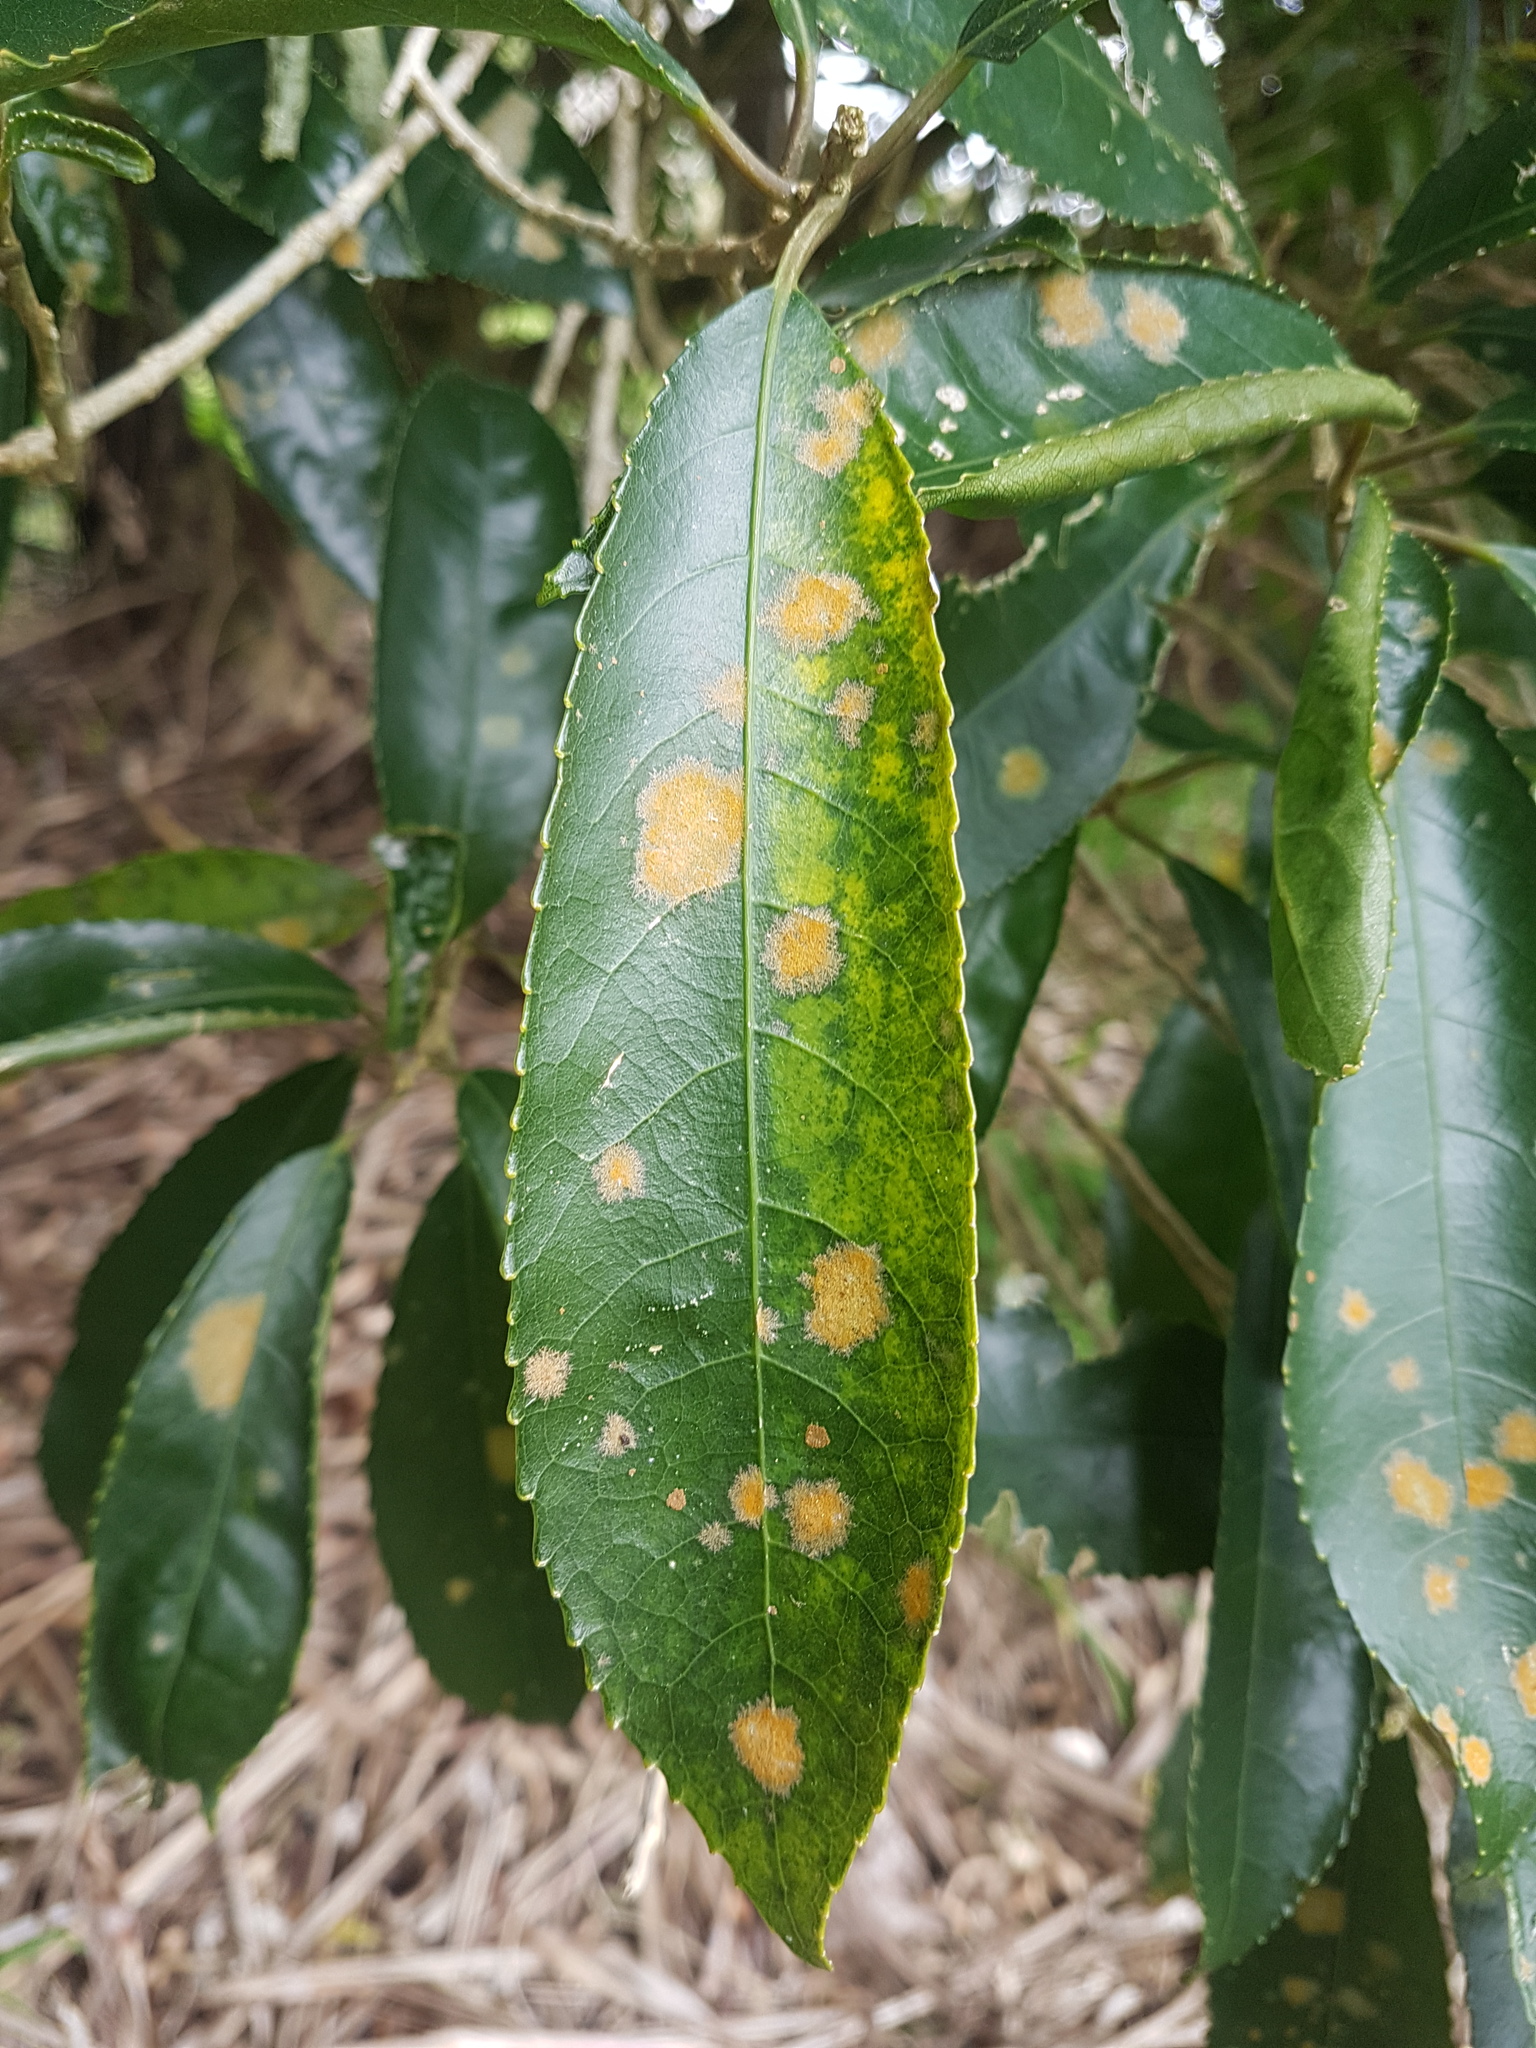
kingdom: Plantae
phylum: Tracheophyta
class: Magnoliopsida
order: Malpighiales
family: Violaceae
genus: Melicytus
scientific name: Melicytus ramiflorus
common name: Mahoe
